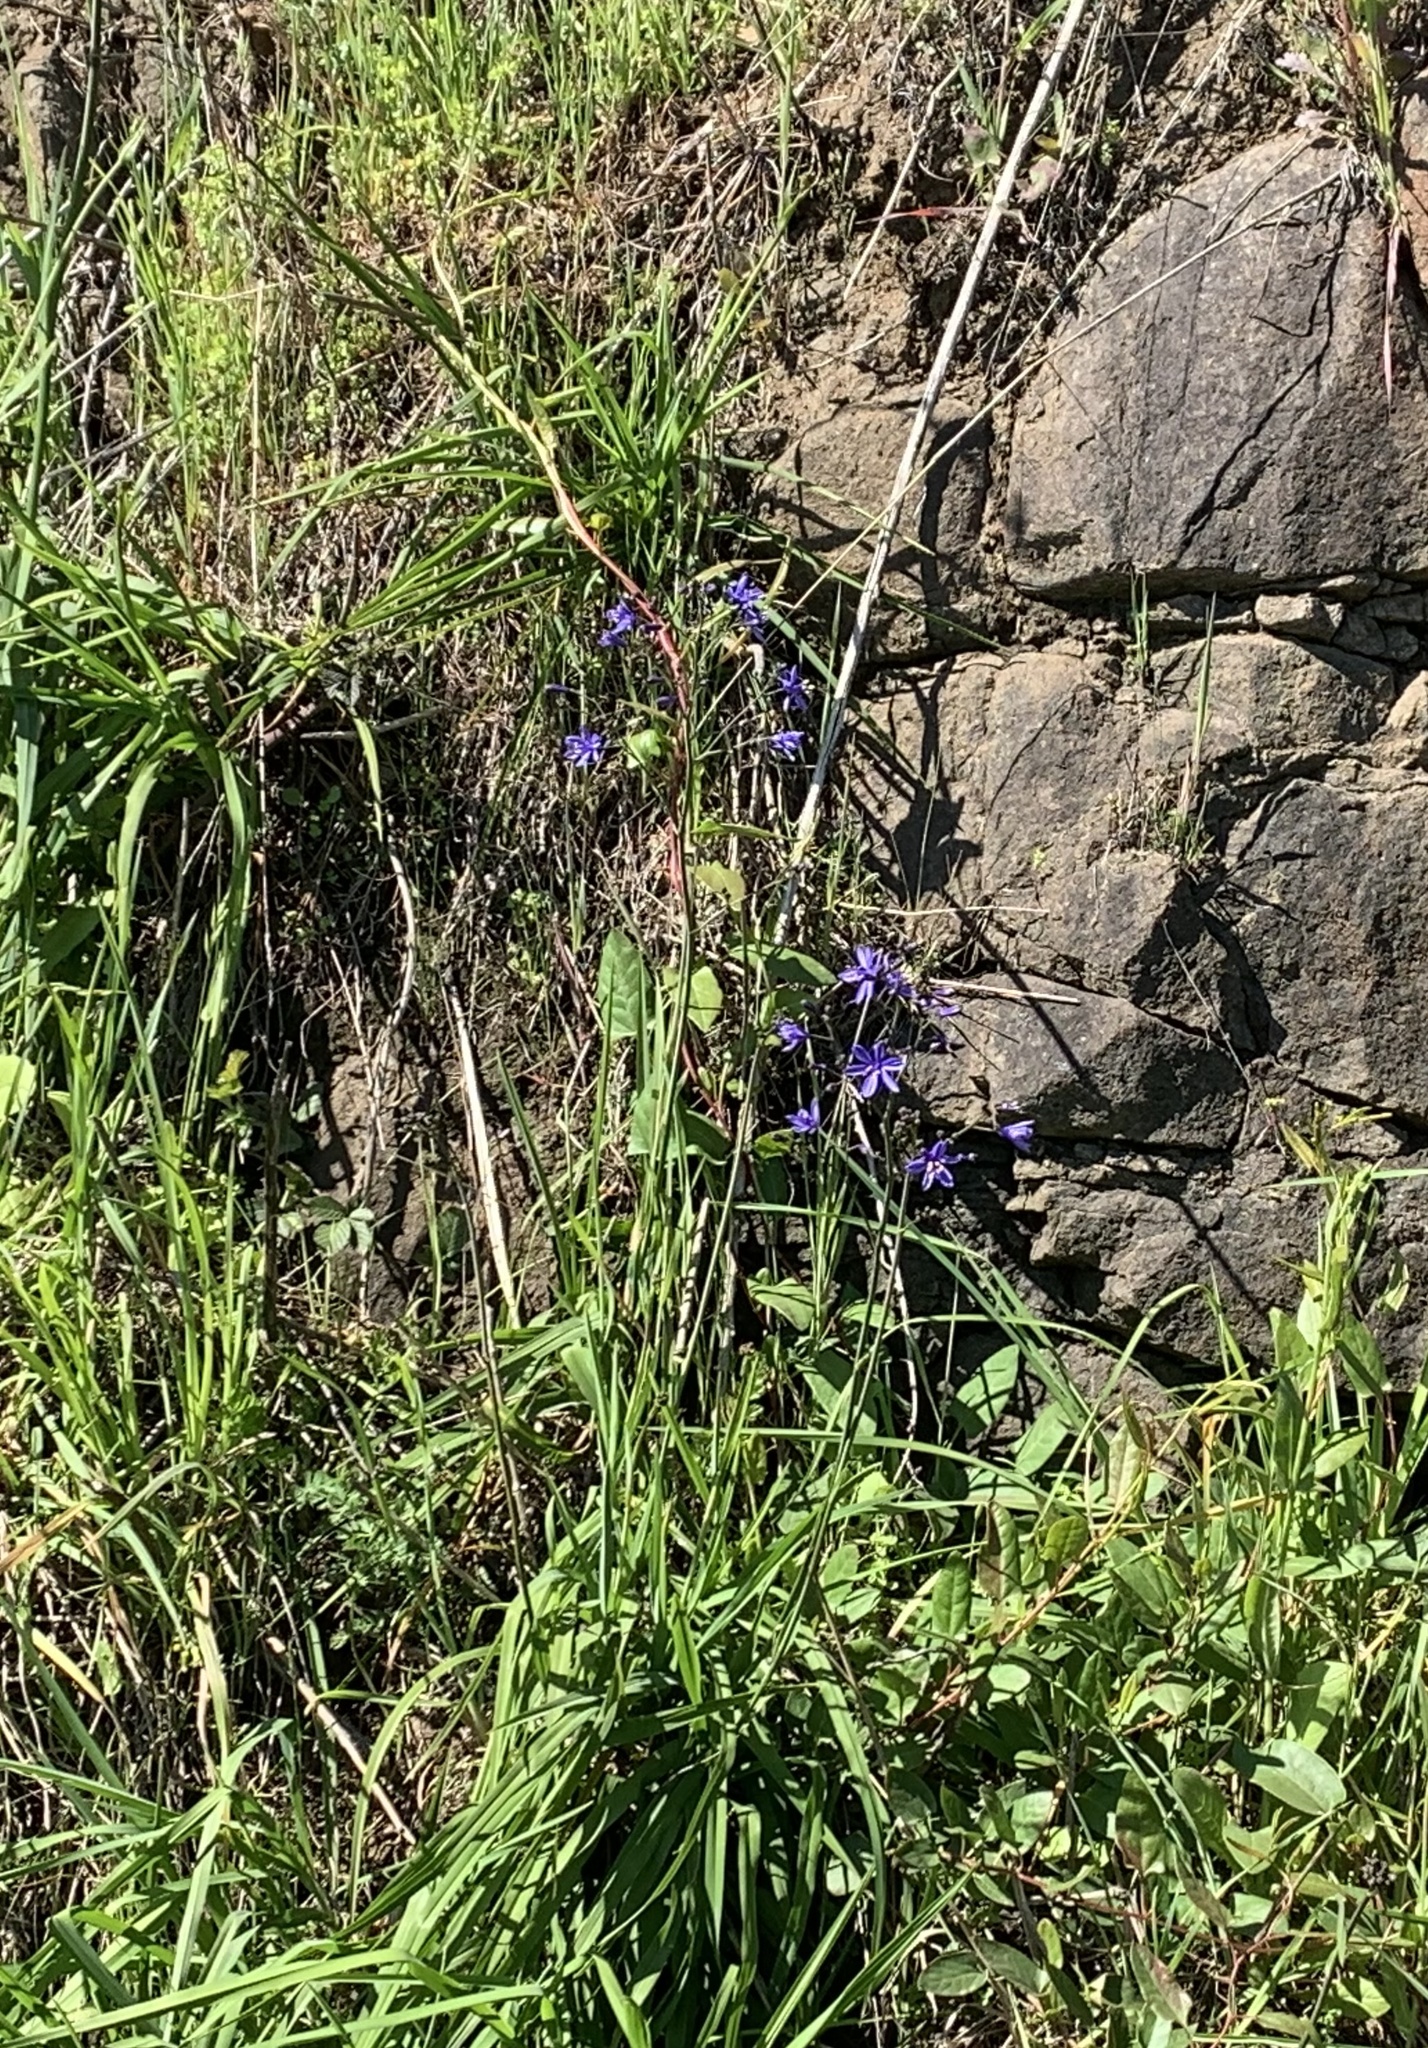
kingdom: Plantae
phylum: Tracheophyta
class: Liliopsida
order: Asparagales
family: Asphodelaceae
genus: Pasithea
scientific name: Pasithea caerulea
